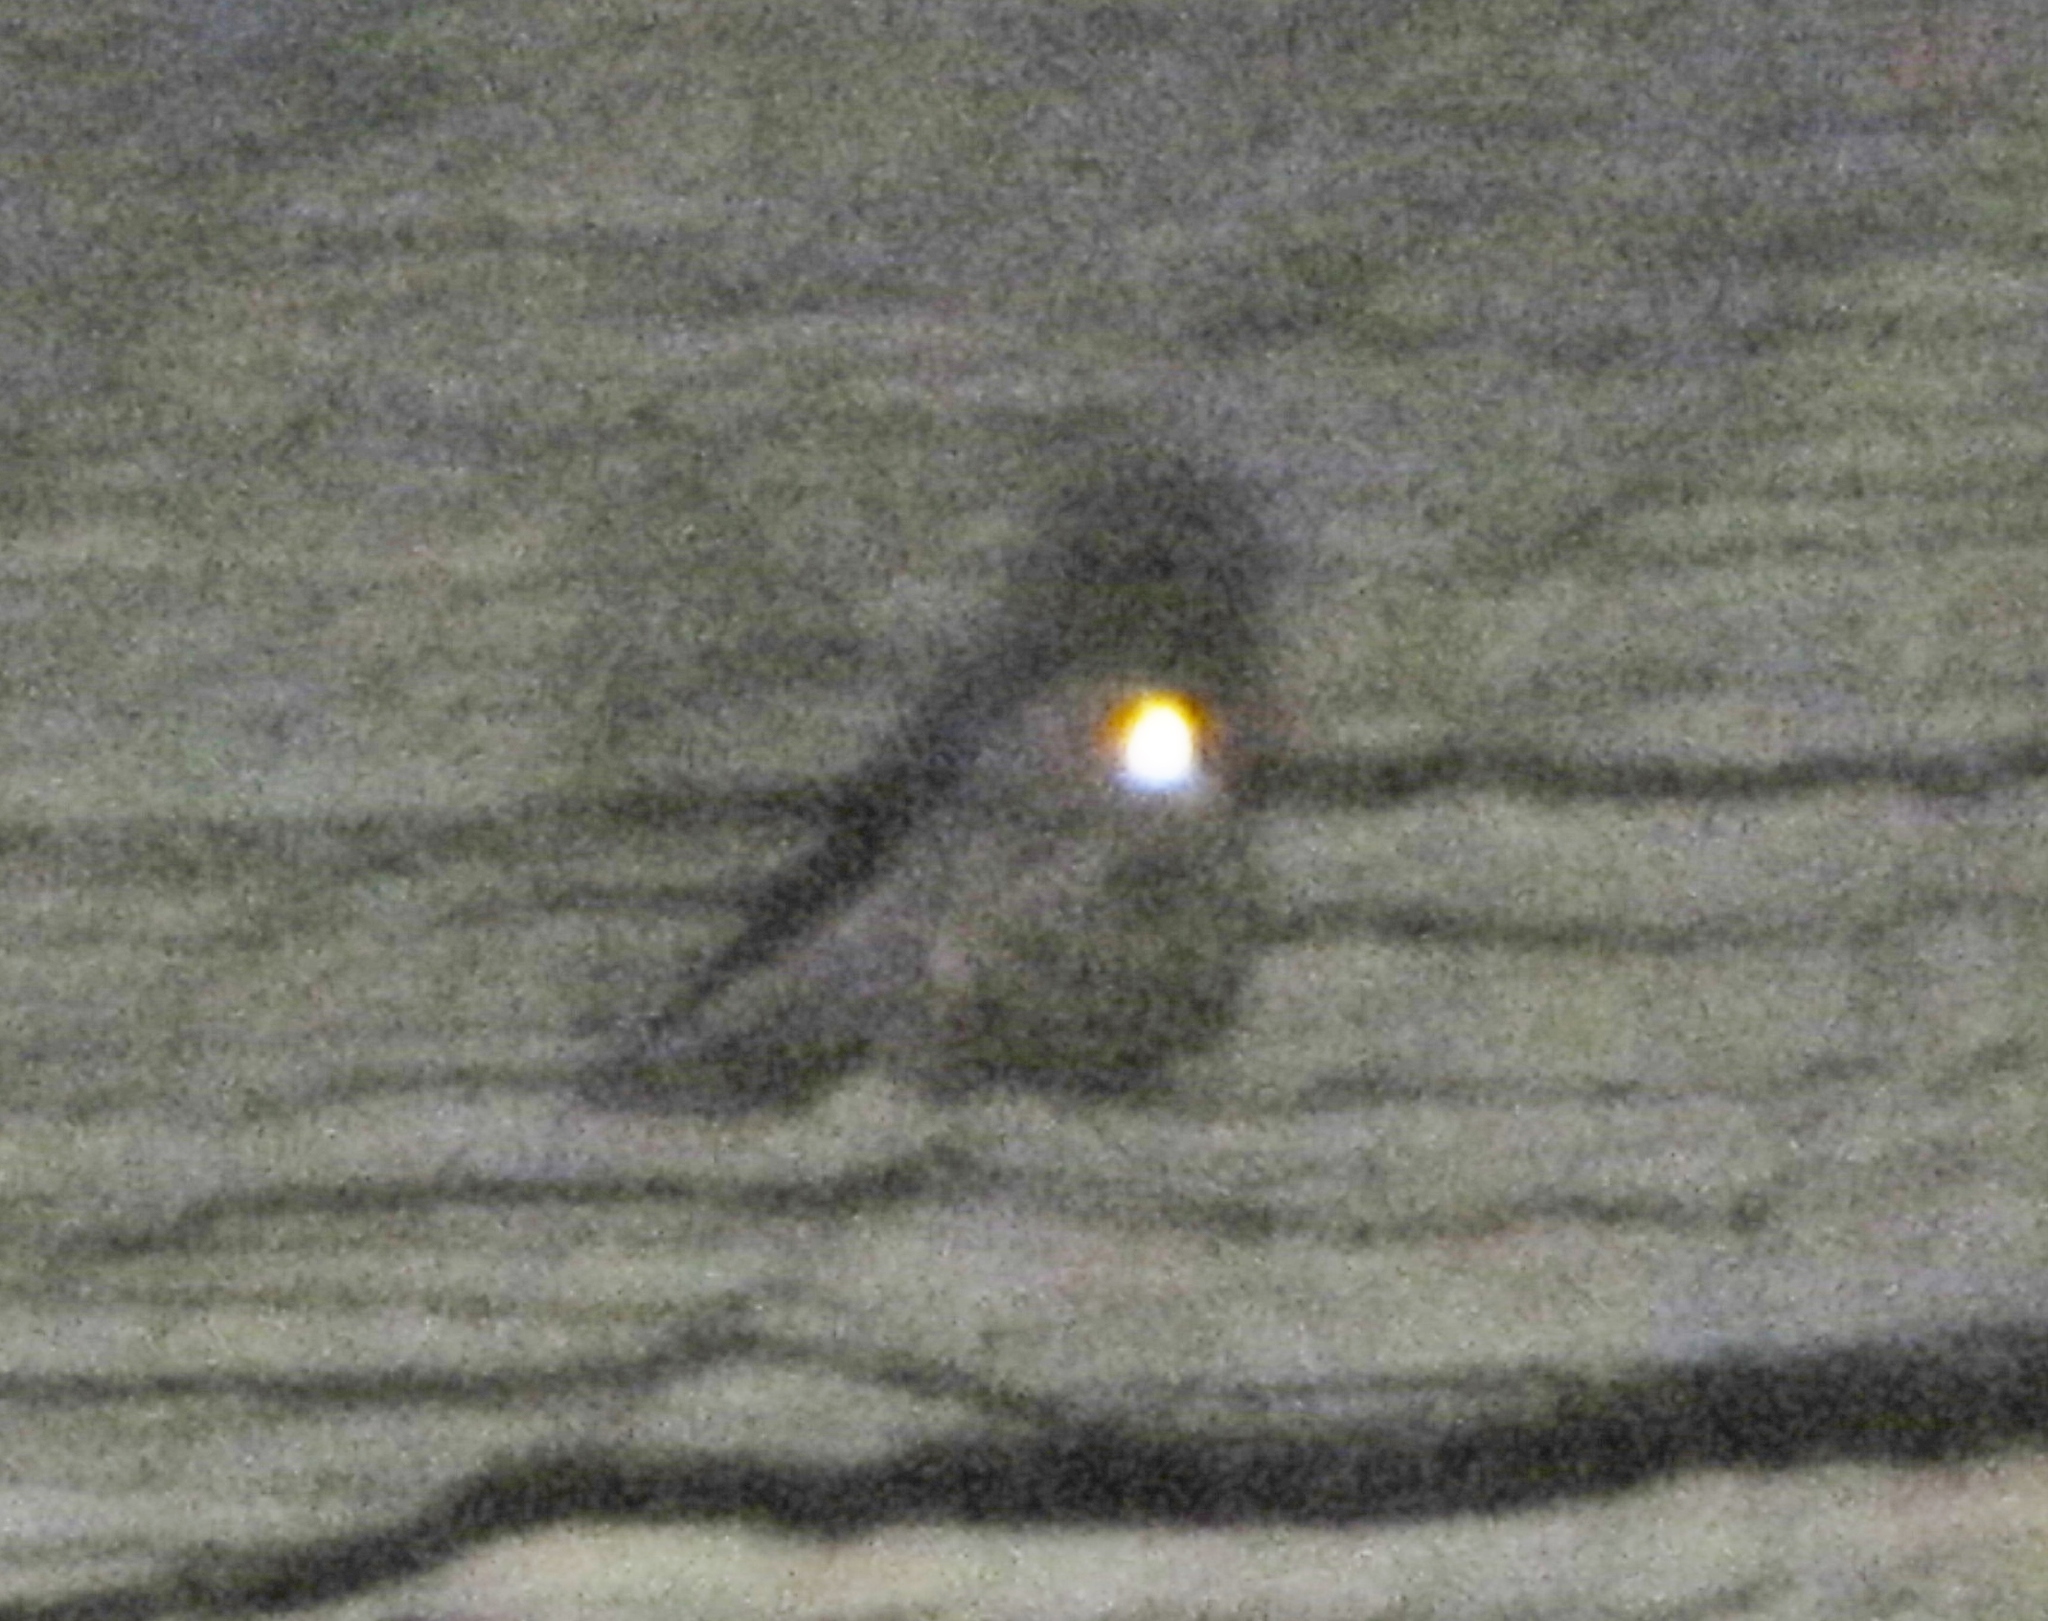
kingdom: Animalia
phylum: Chordata
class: Aves
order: Caprimulgiformes
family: Caprimulgidae
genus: Antrostomus
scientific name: Antrostomus vociferus
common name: Eastern whip-poor-will
